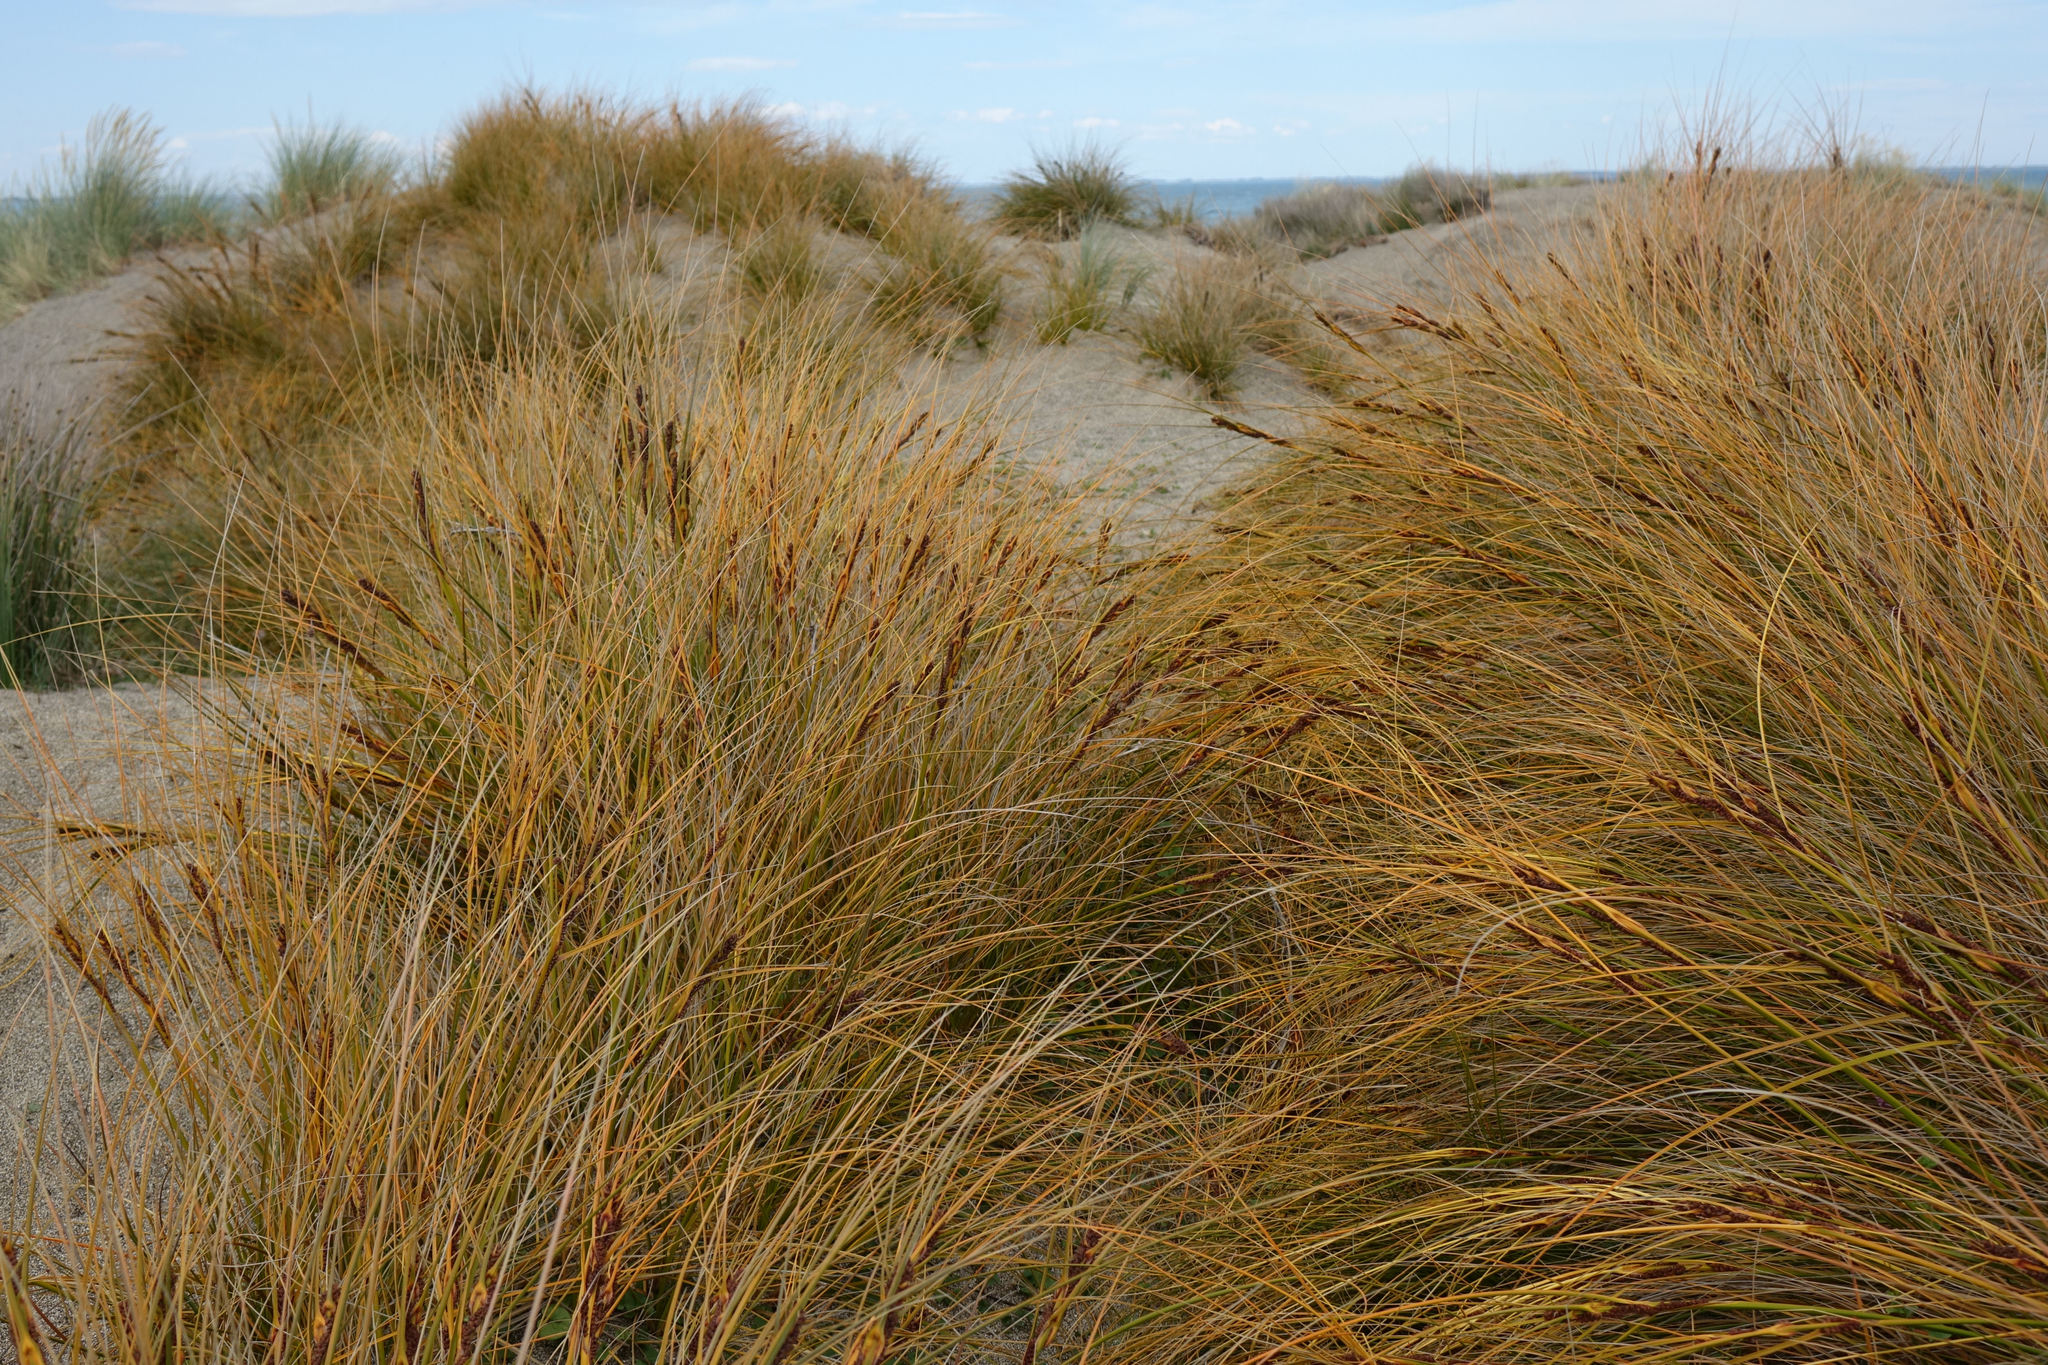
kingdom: Plantae
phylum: Tracheophyta
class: Liliopsida
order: Poales
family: Cyperaceae
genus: Ficinia
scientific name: Ficinia spiralis
